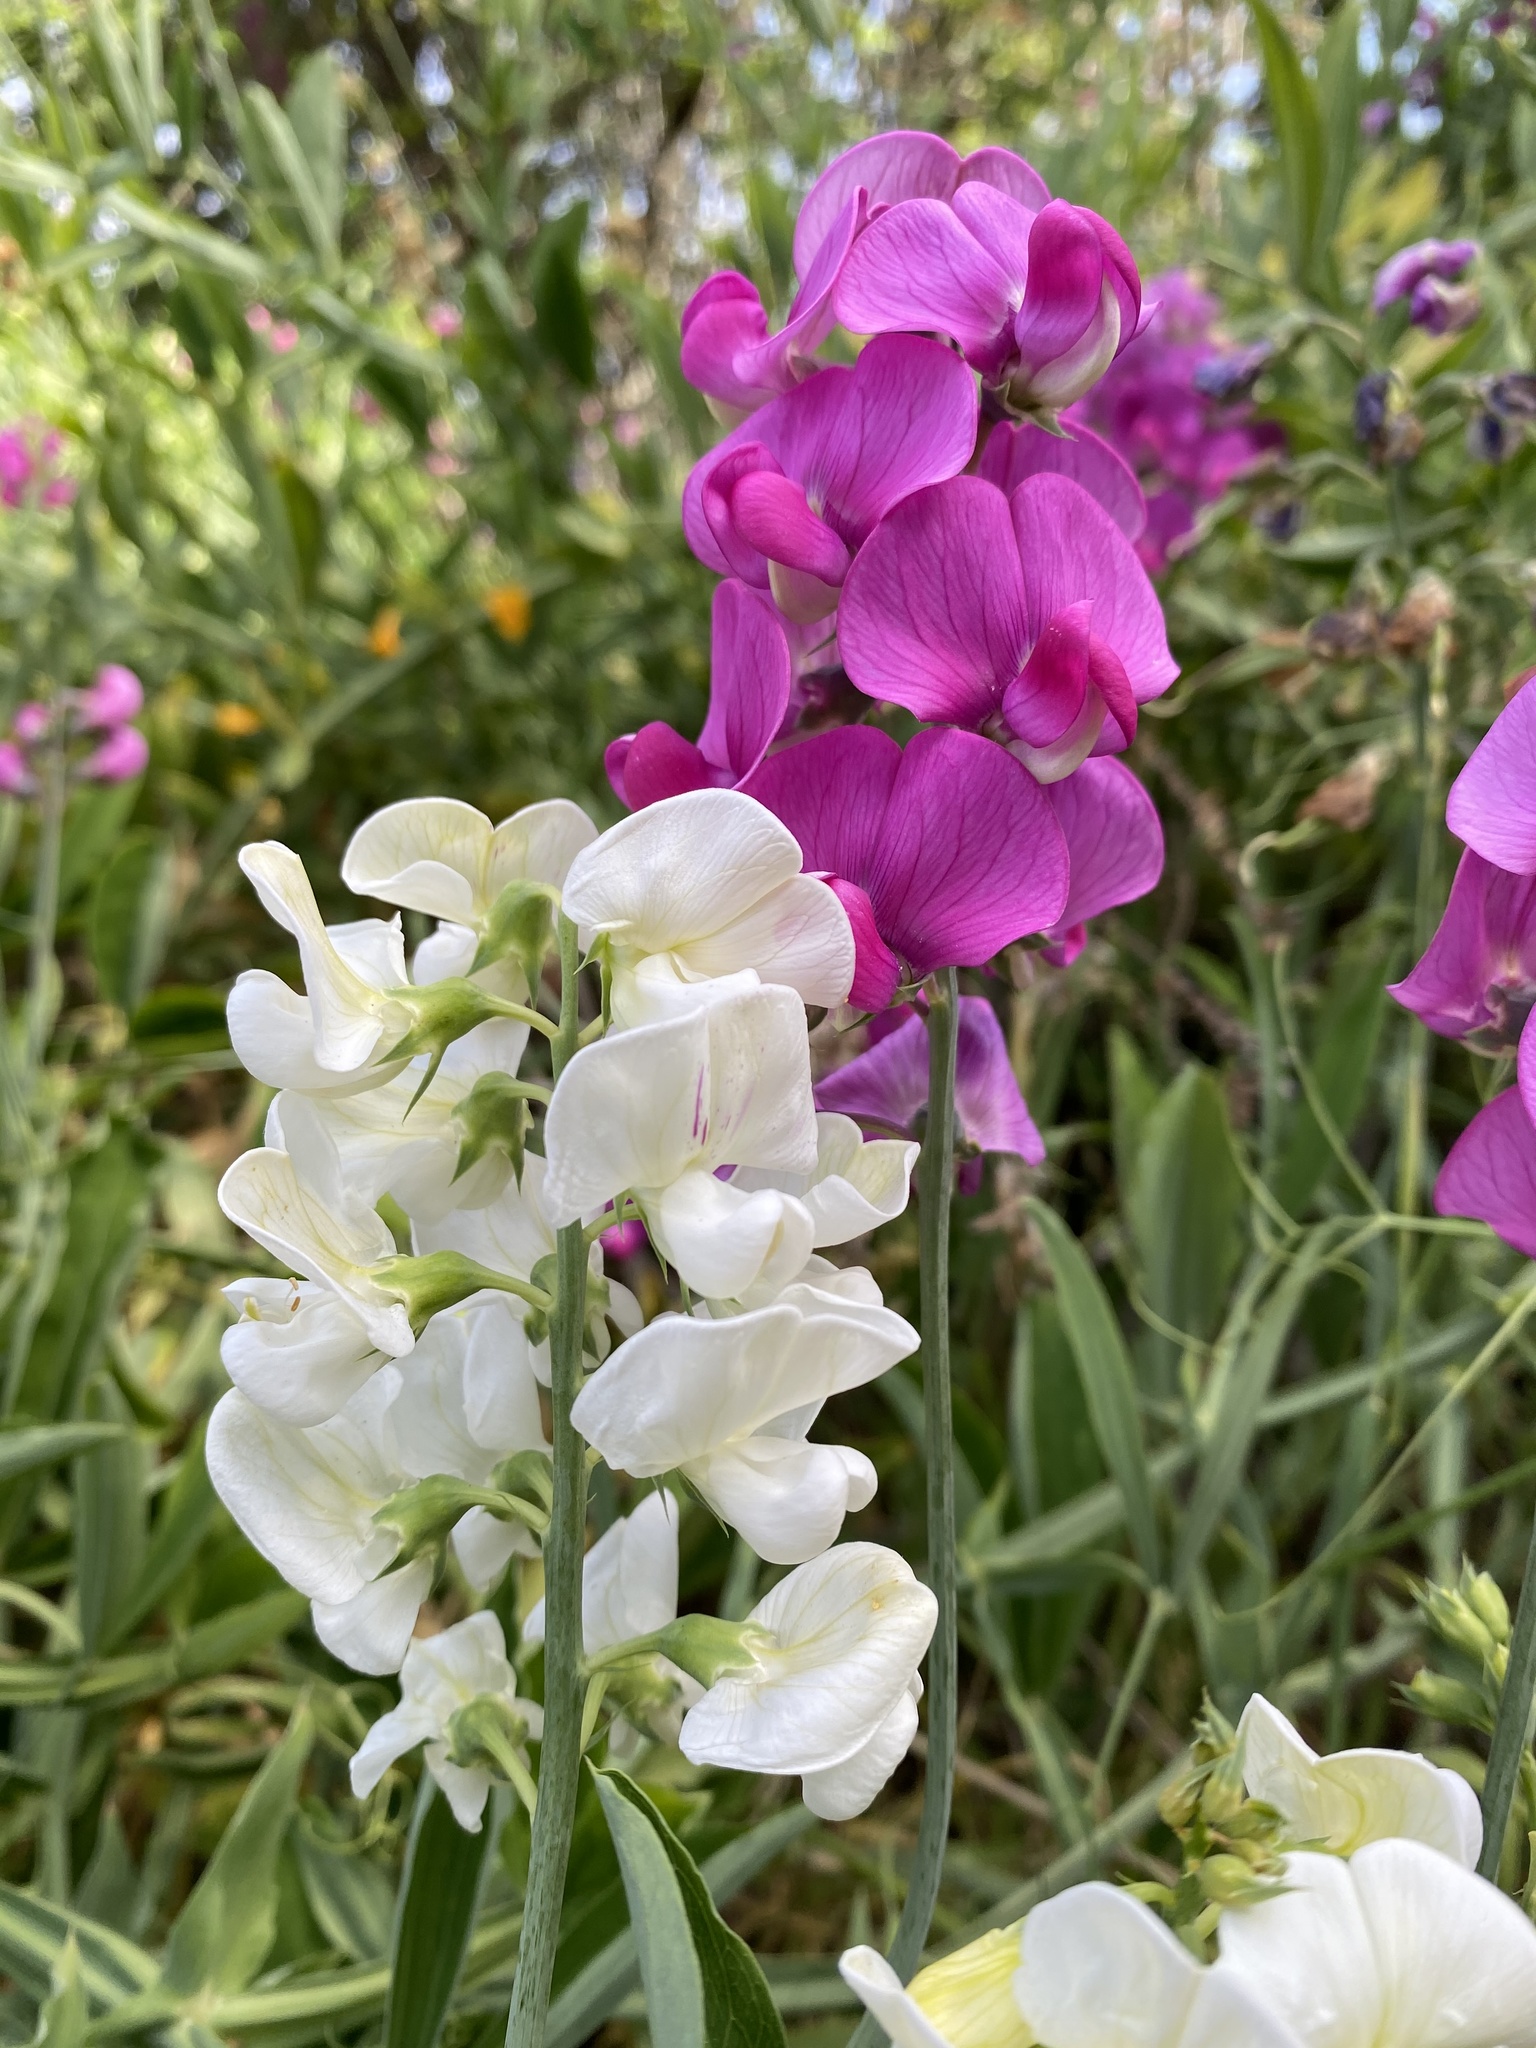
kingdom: Plantae
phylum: Tracheophyta
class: Magnoliopsida
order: Fabales
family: Fabaceae
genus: Lathyrus
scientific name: Lathyrus latifolius
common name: Perennial pea
